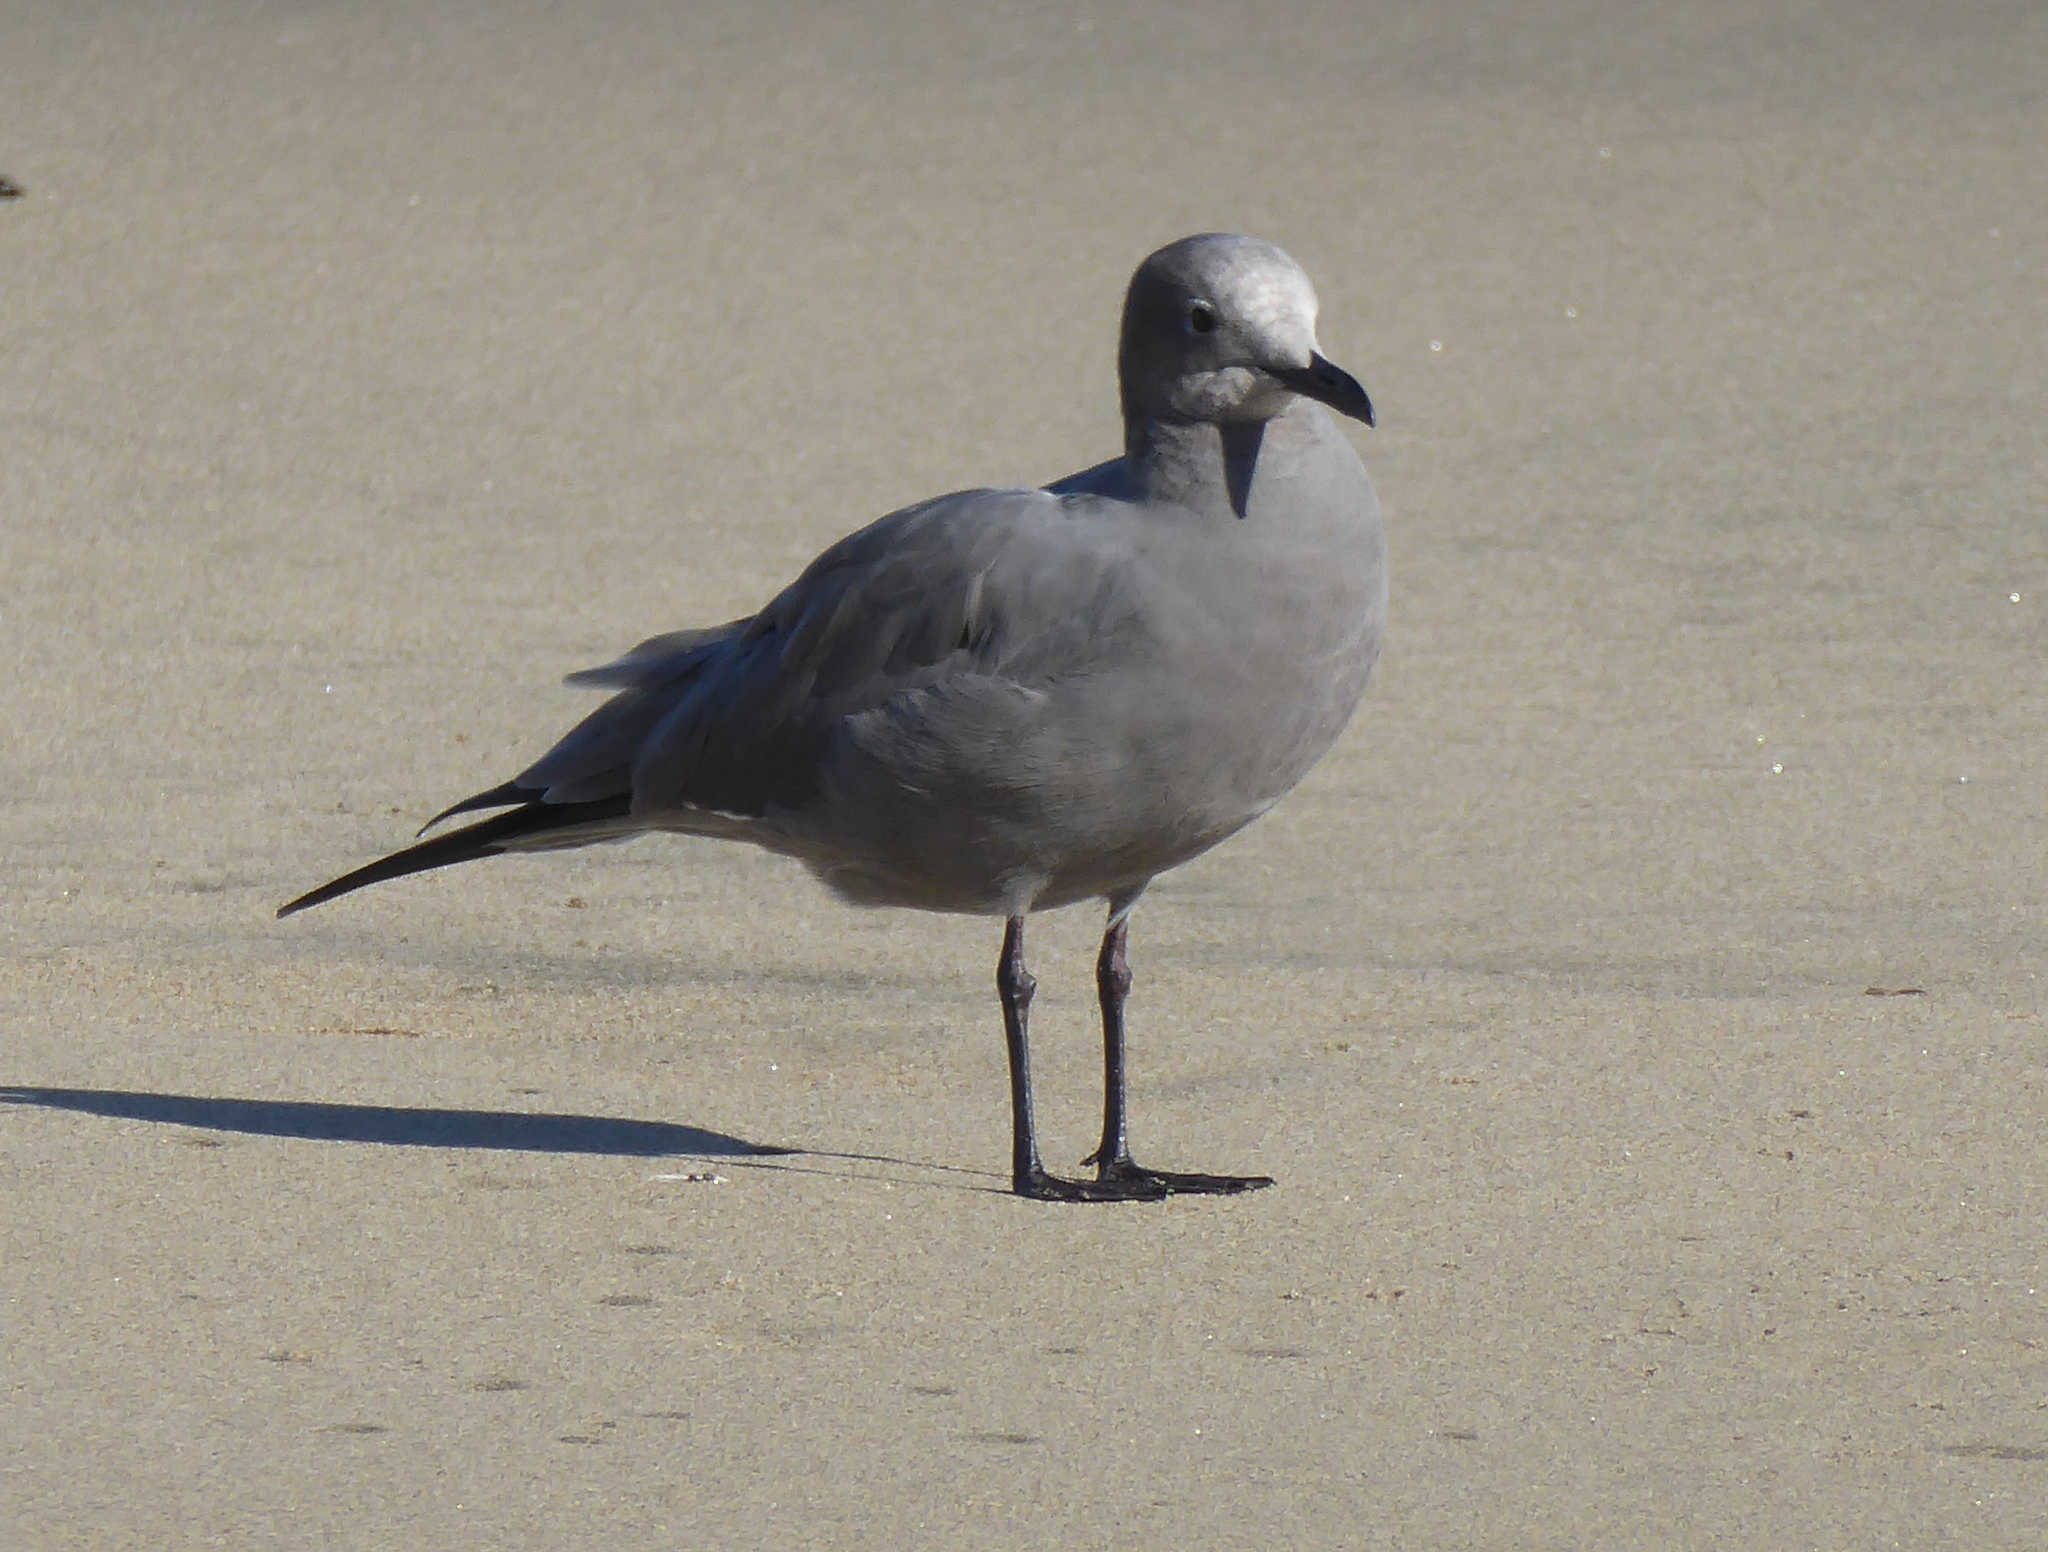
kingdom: Animalia
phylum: Chordata
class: Aves
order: Charadriiformes
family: Laridae
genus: Leucophaeus
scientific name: Leucophaeus modestus
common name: Gray gull
